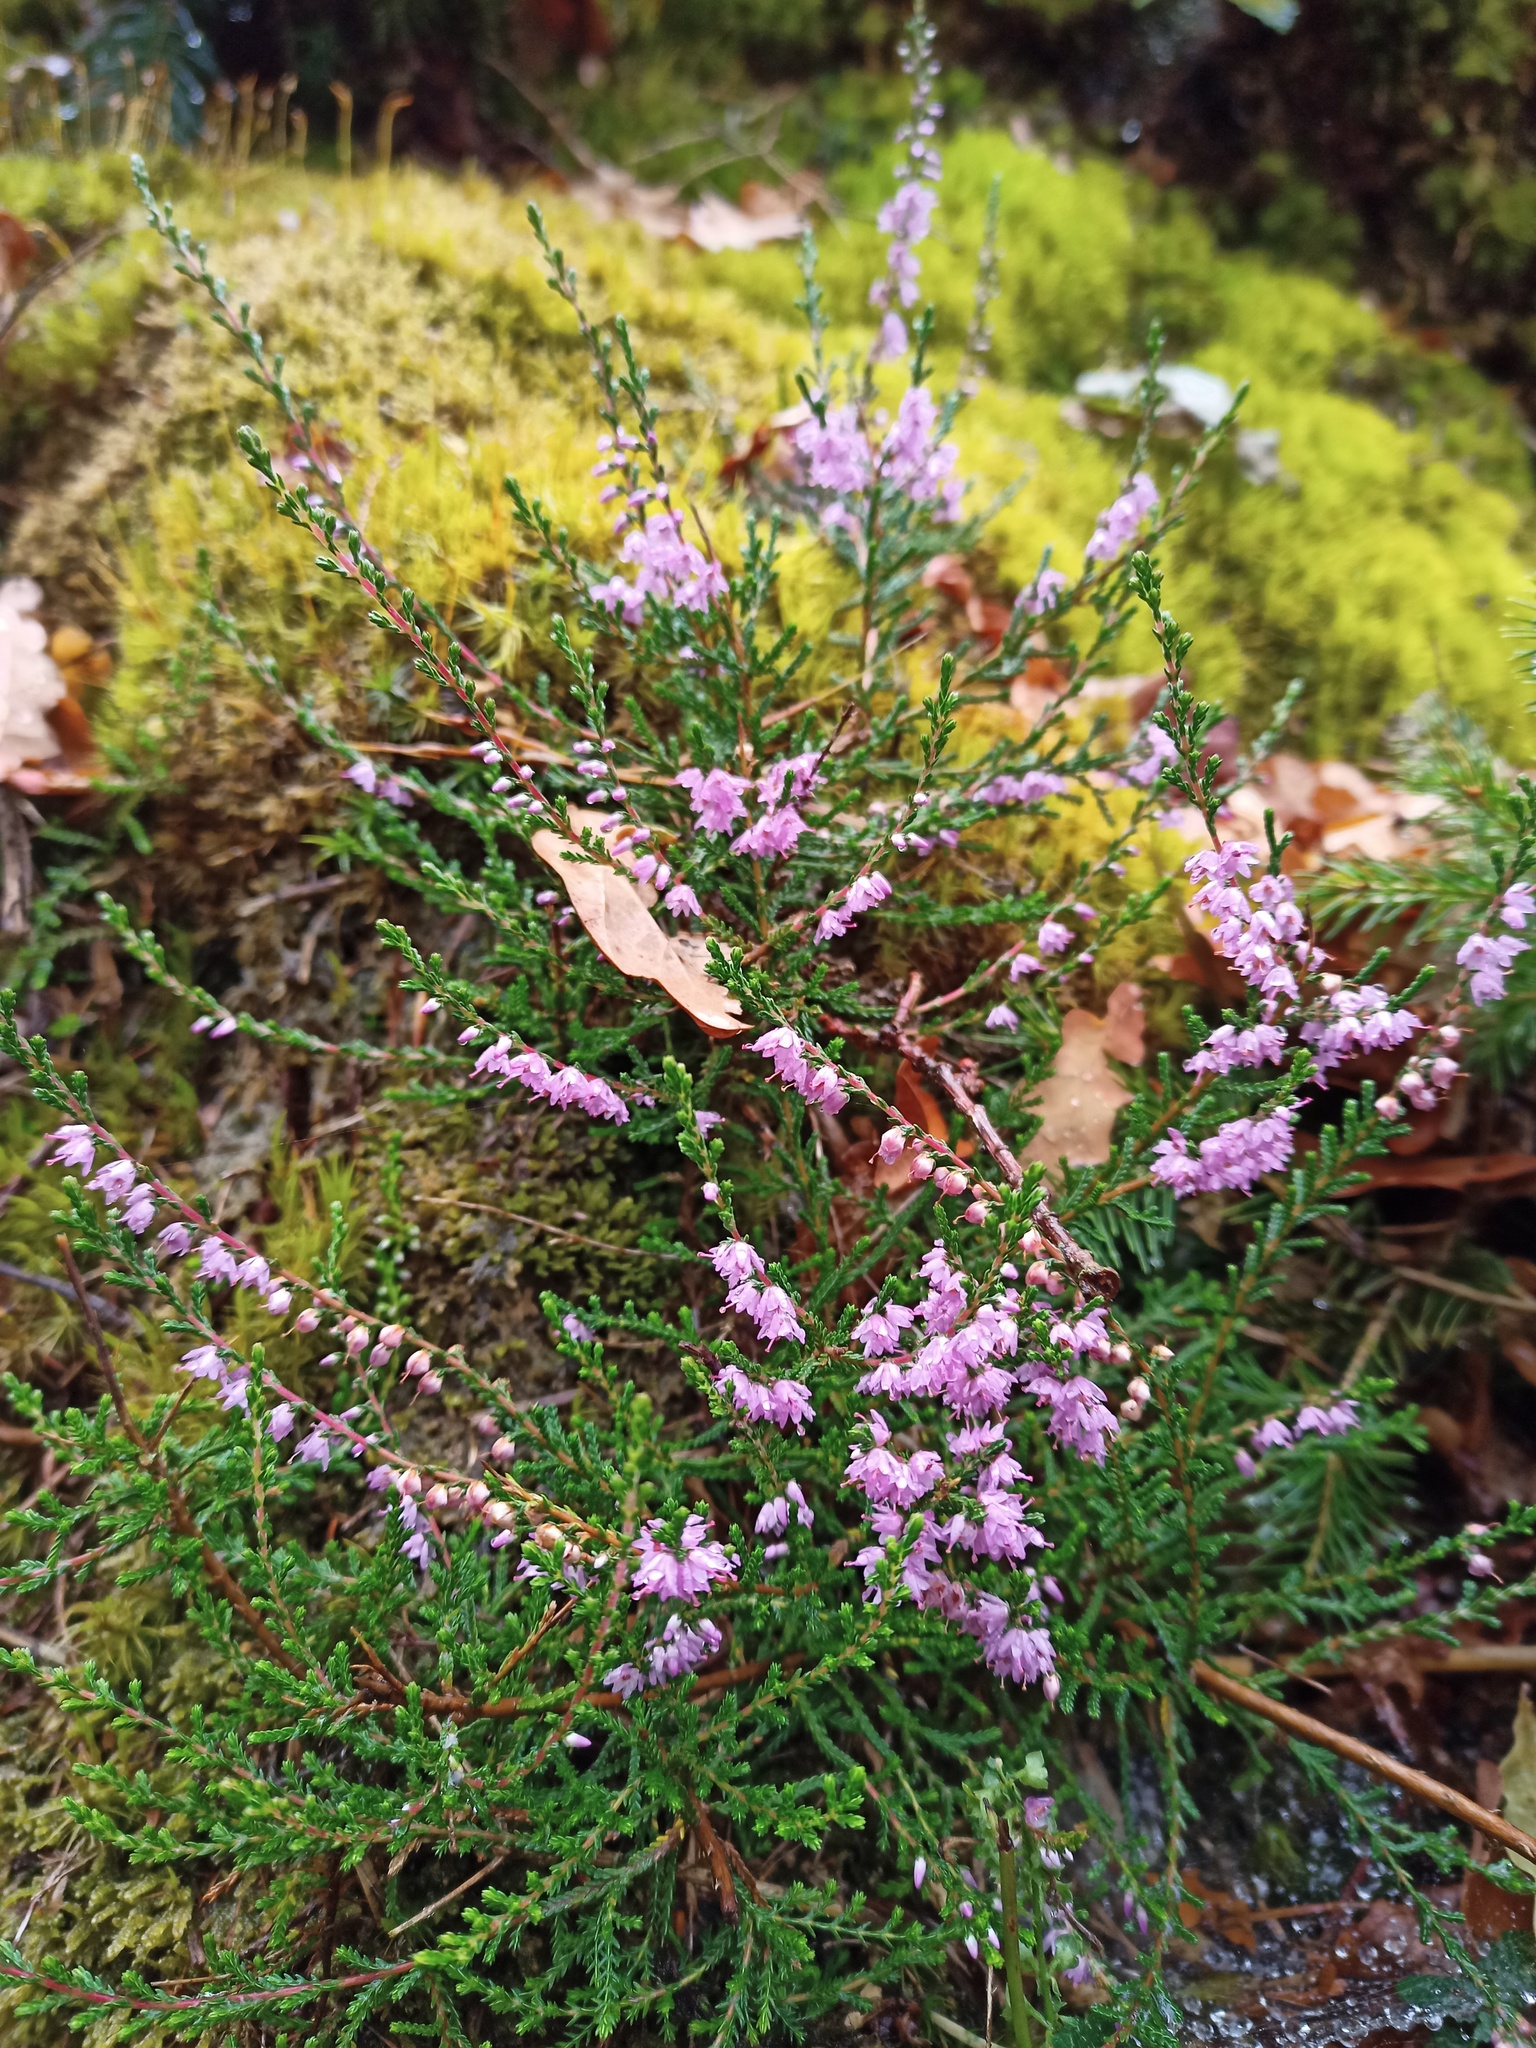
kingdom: Plantae
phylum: Tracheophyta
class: Magnoliopsida
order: Ericales
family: Ericaceae
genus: Calluna
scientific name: Calluna vulgaris
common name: Heather
